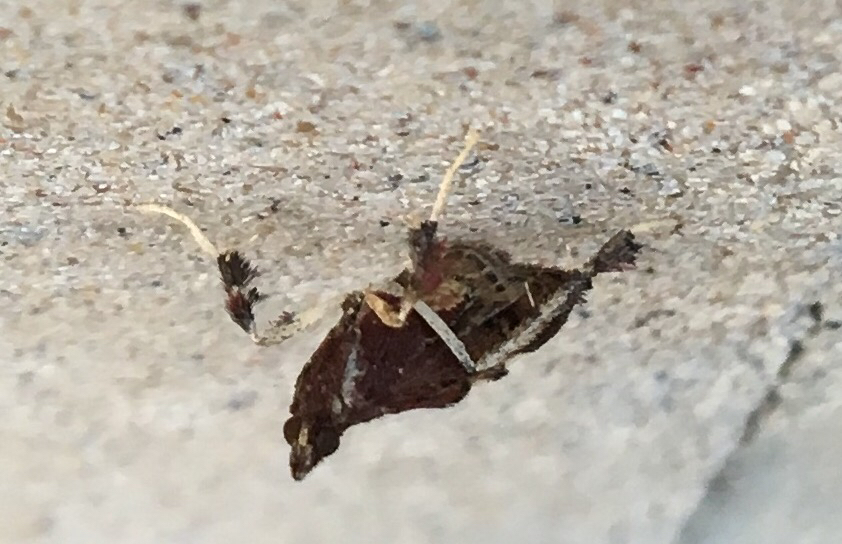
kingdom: Animalia
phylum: Arthropoda
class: Insecta
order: Lepidoptera
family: Pyralidae
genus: Galasa
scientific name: Galasa nigrinodis
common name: Boxwood leaftier moth
